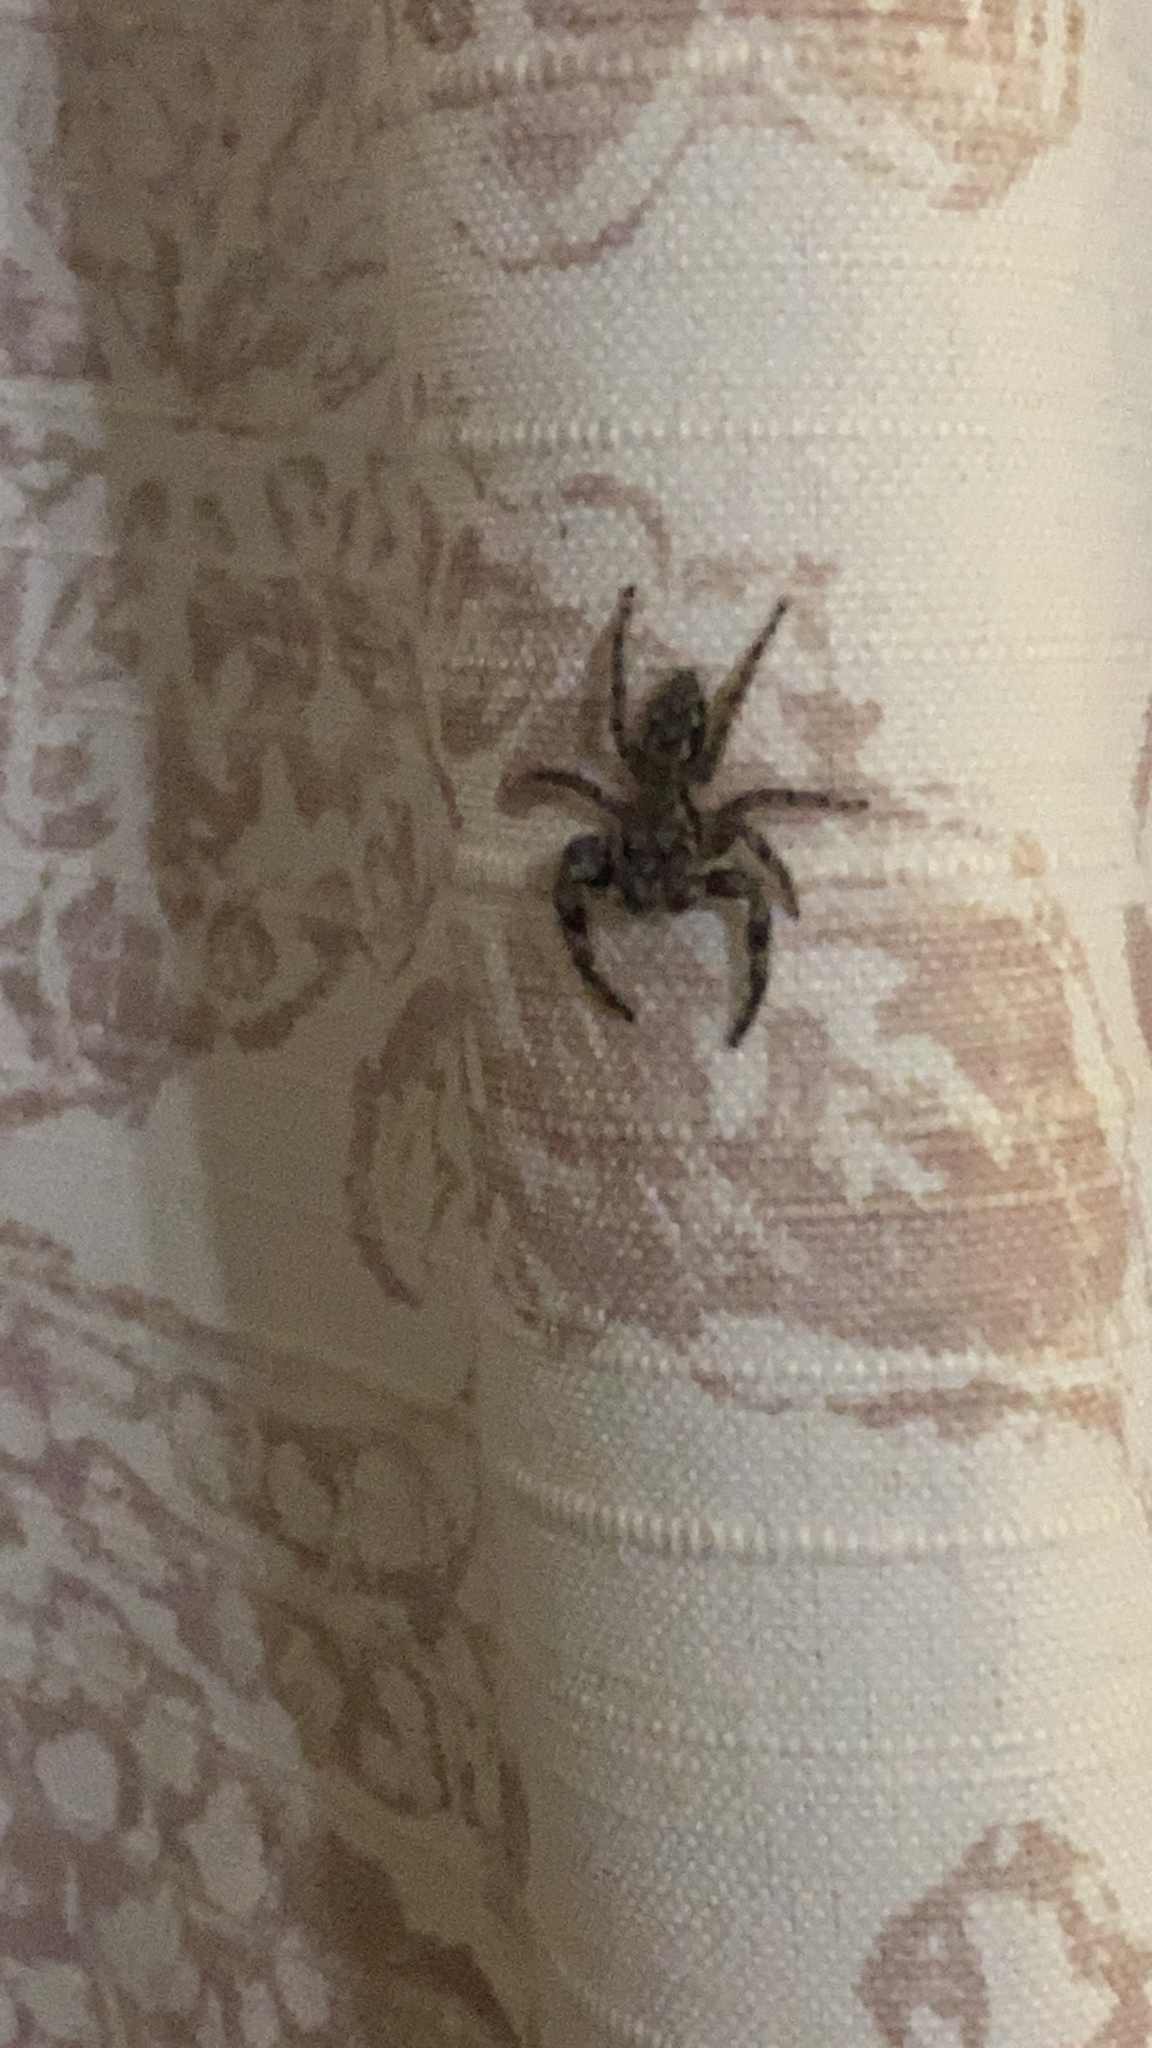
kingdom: Animalia
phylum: Arthropoda
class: Arachnida
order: Araneae
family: Salticidae
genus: Platycryptus
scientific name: Platycryptus undatus
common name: Tan jumping spider
